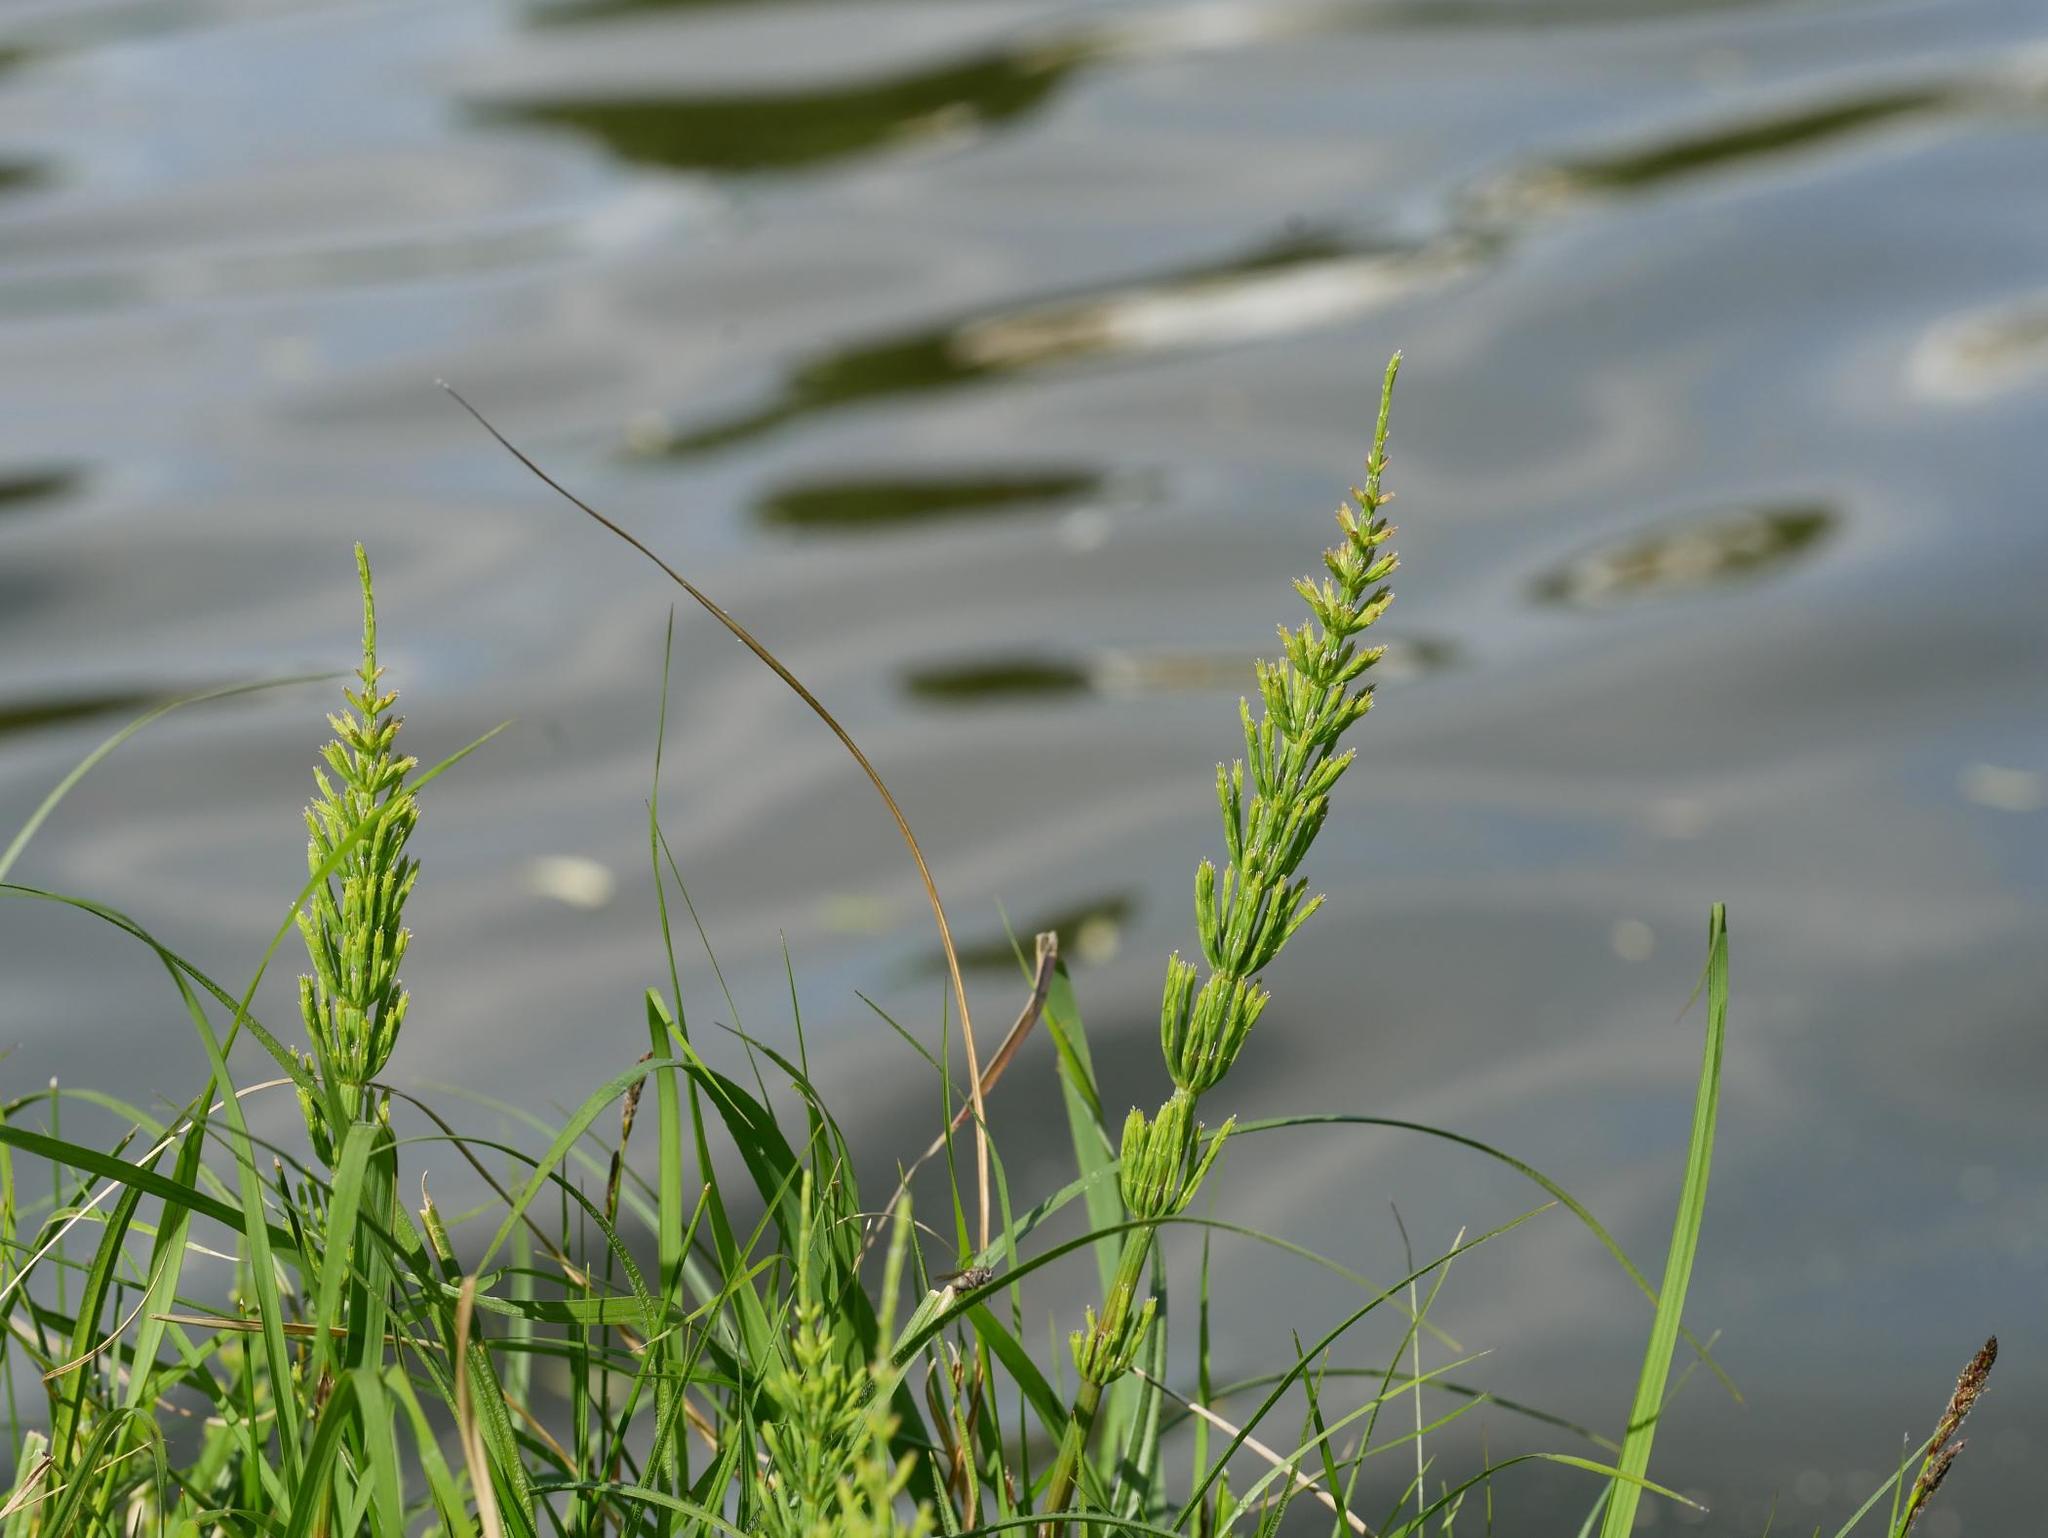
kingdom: Plantae
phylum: Tracheophyta
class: Polypodiopsida
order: Equisetales
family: Equisetaceae
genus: Equisetum
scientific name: Equisetum fluviatile
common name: Water horsetail
